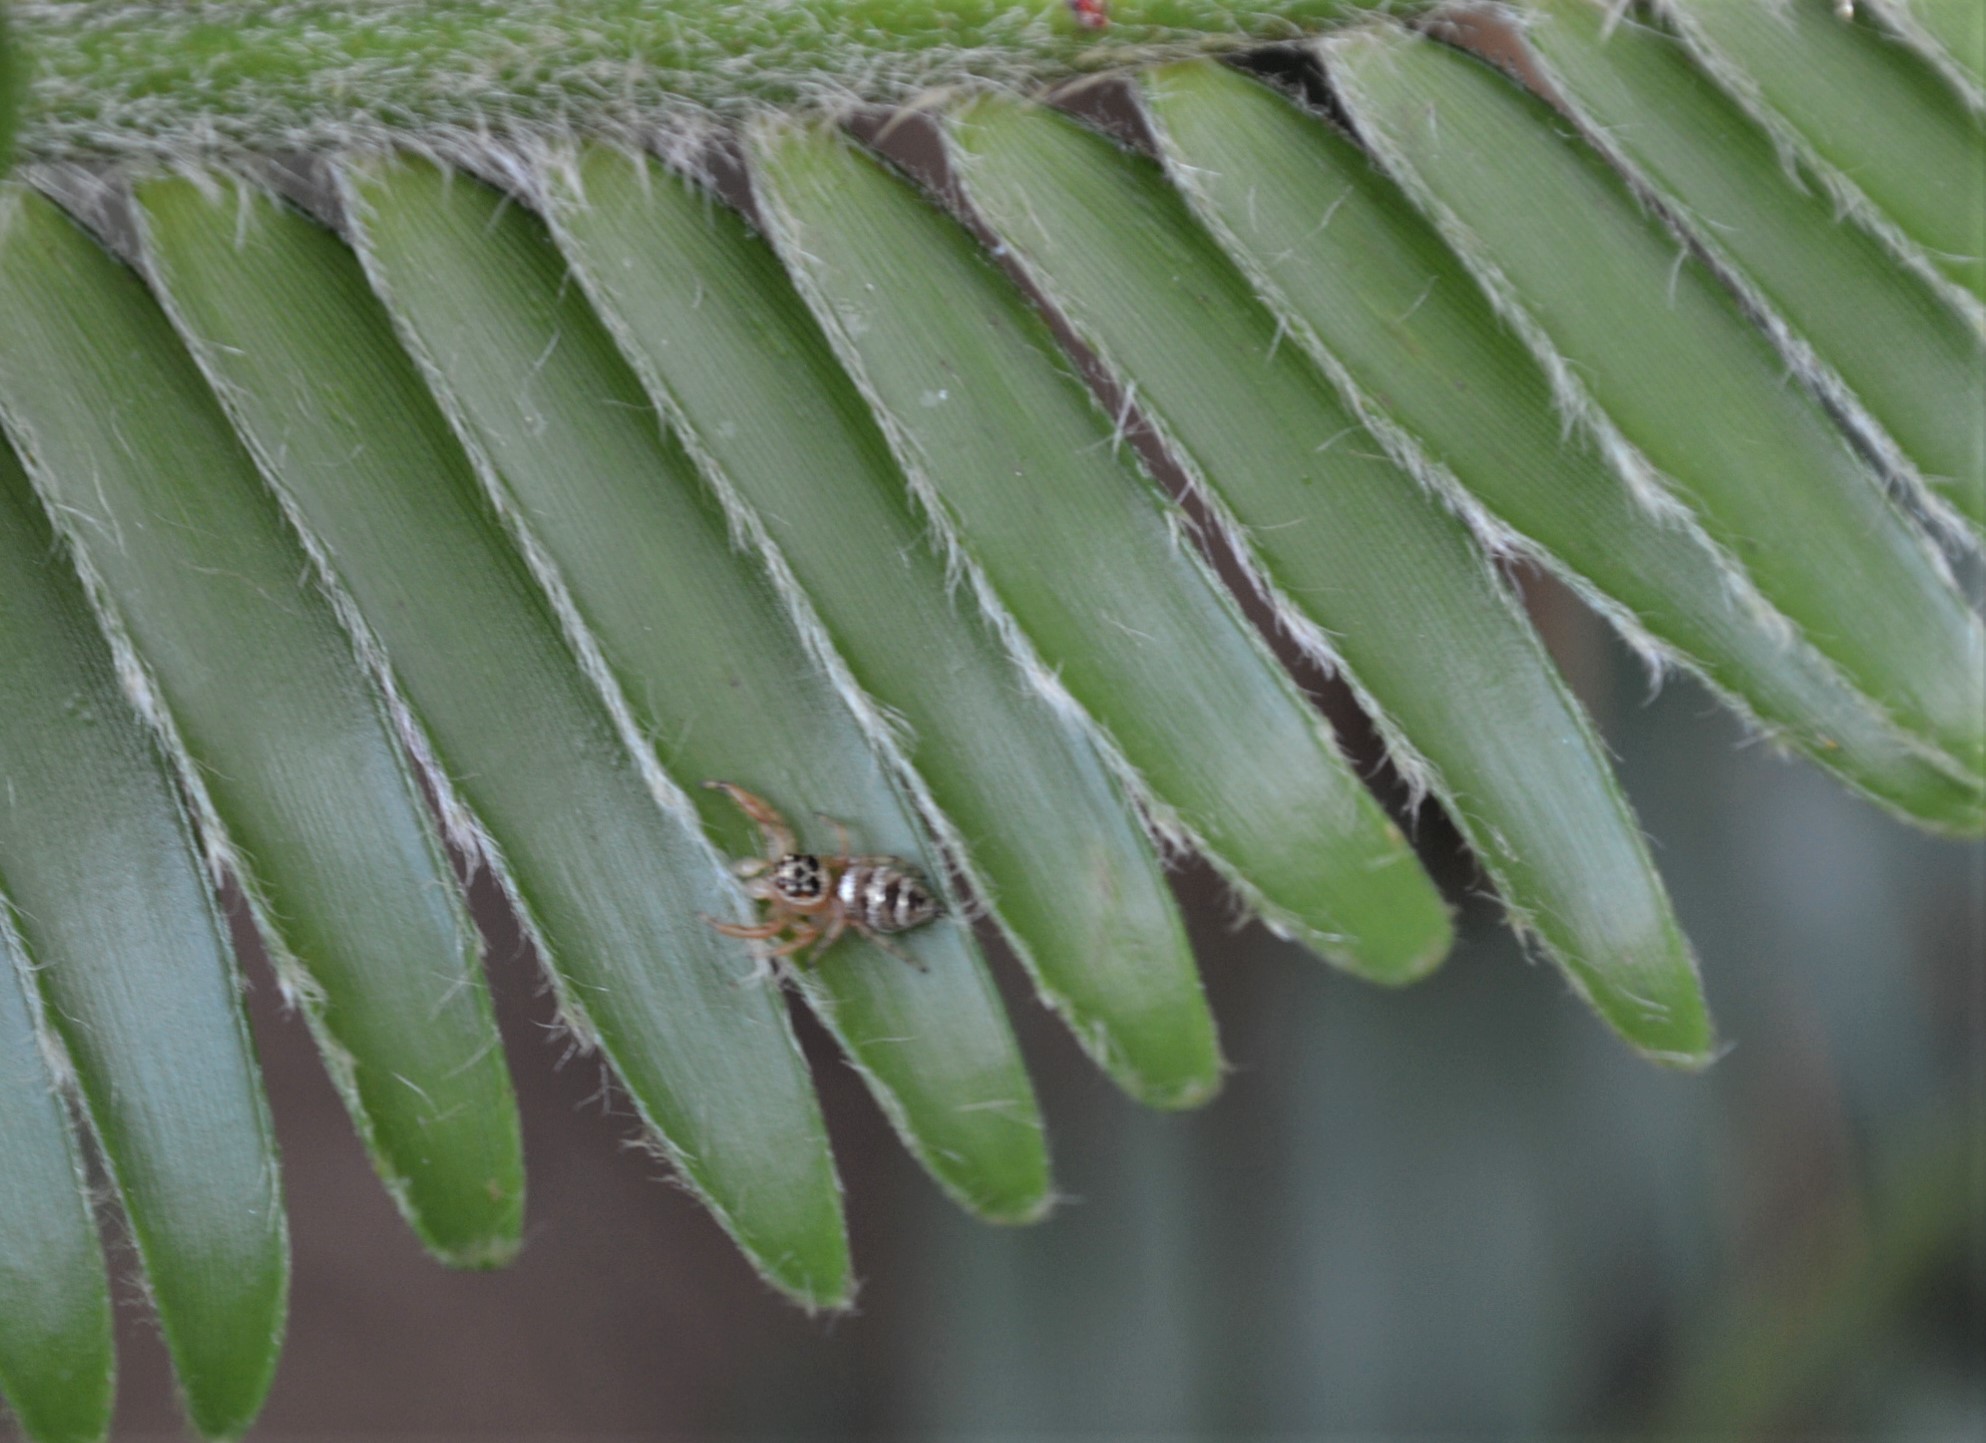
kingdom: Animalia
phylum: Arthropoda
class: Arachnida
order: Araneae
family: Salticidae
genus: Thyene
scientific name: Thyene natalii
